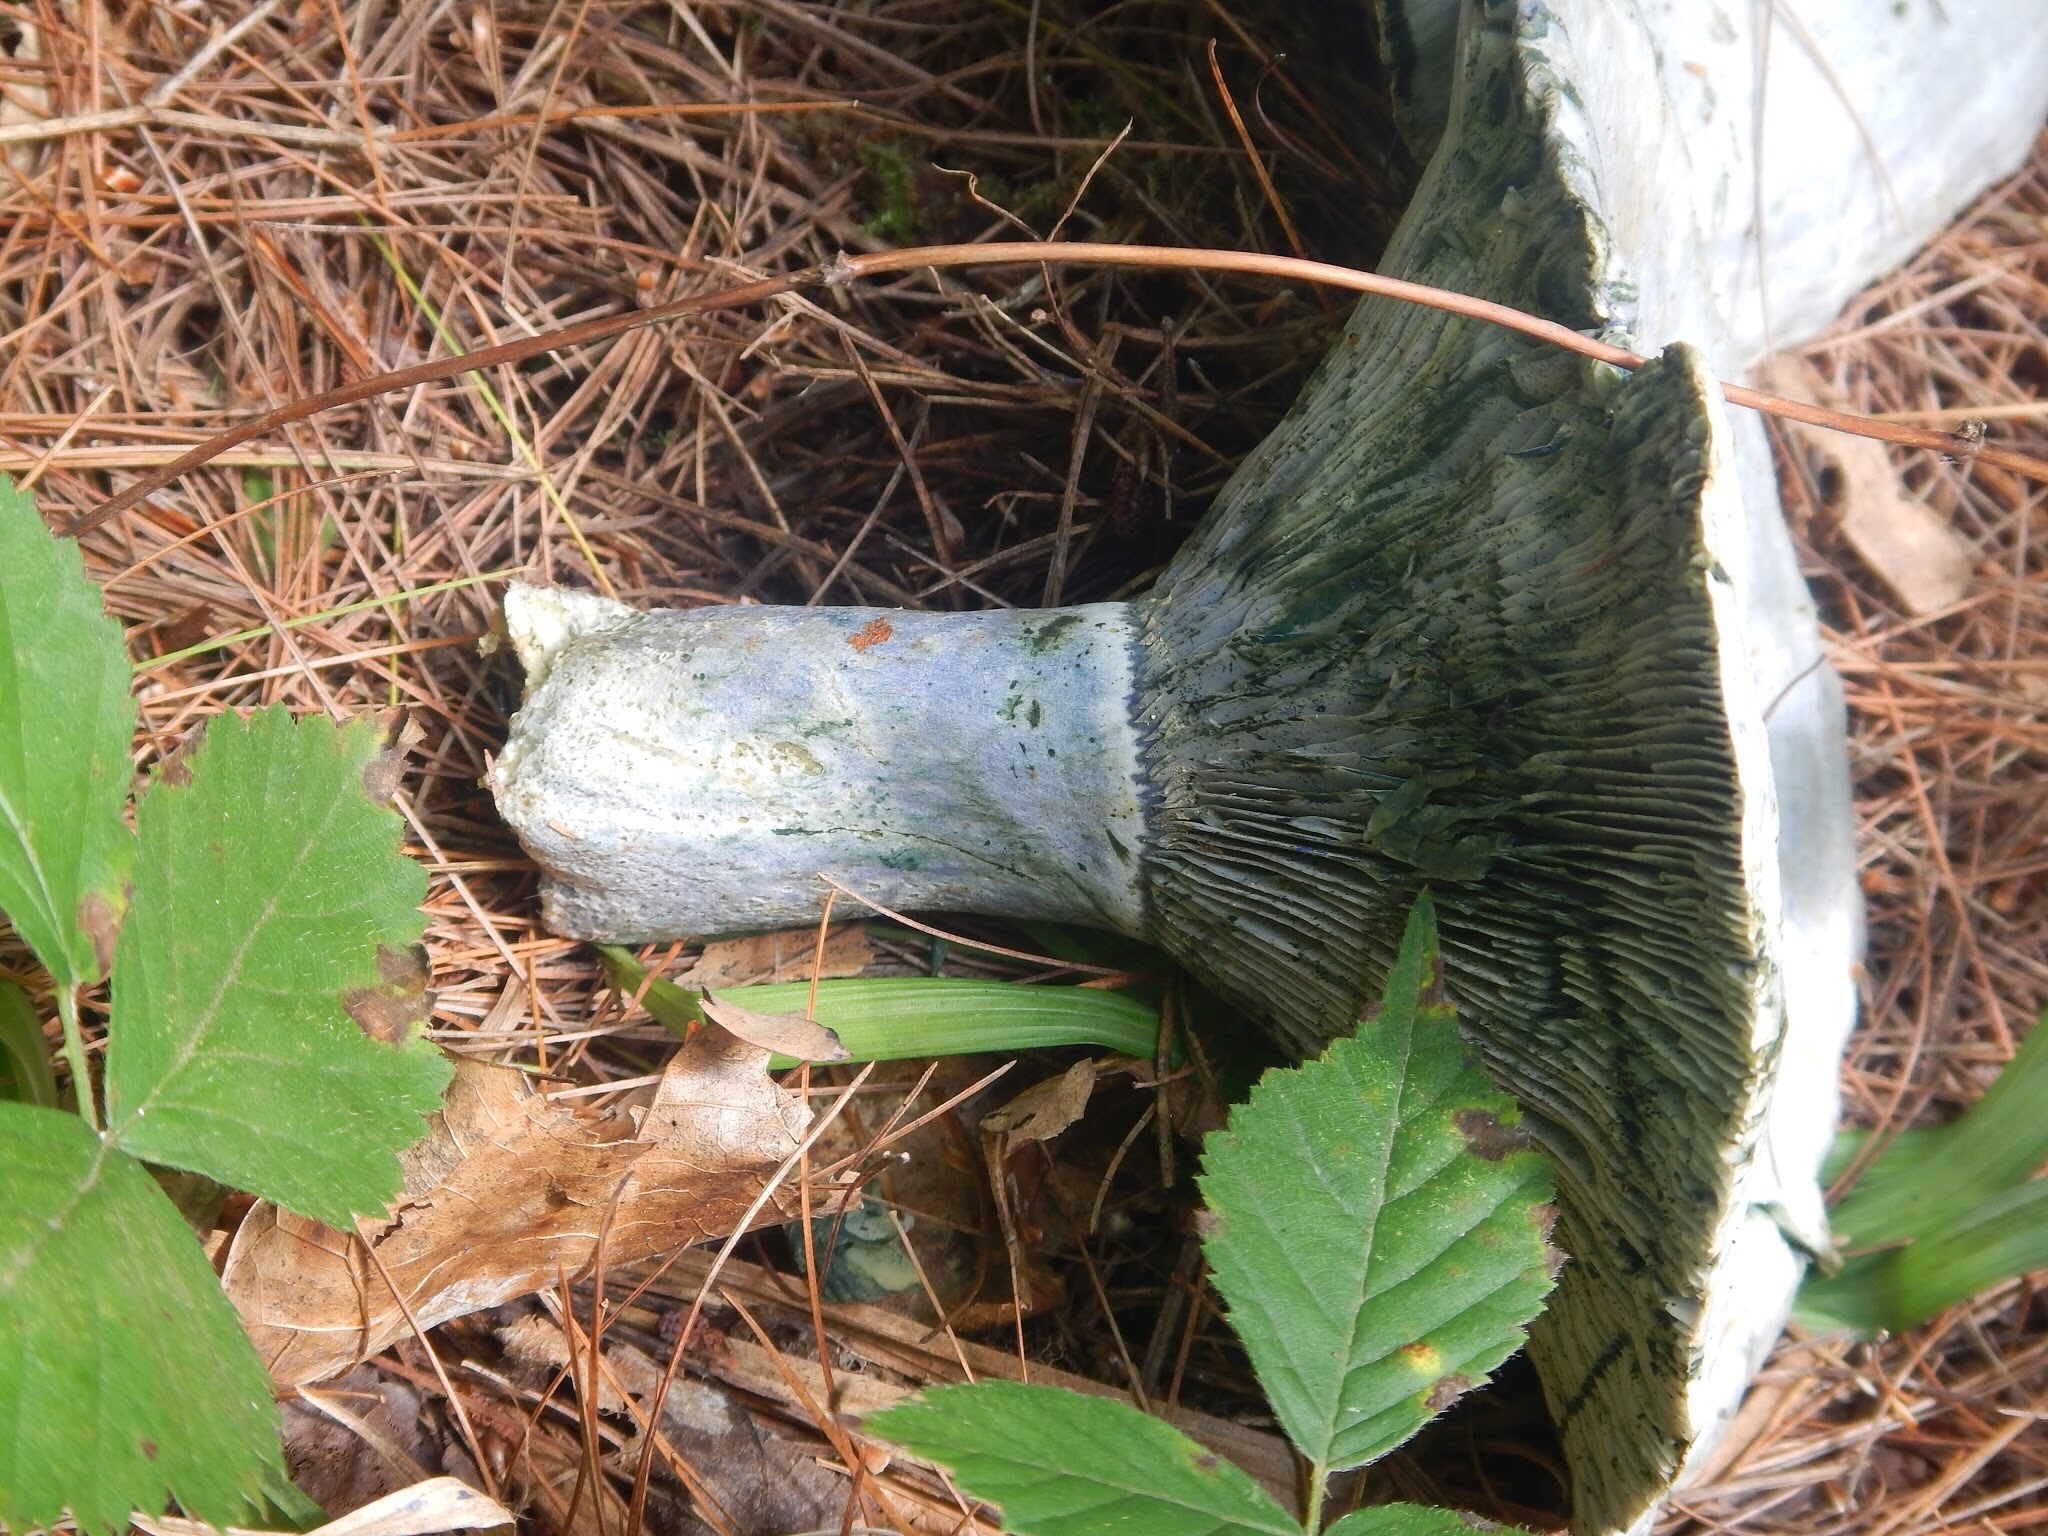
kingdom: Fungi
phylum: Basidiomycota
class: Agaricomycetes
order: Russulales
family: Russulaceae
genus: Lactarius
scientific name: Lactarius indigo
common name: Indigo milk cap
